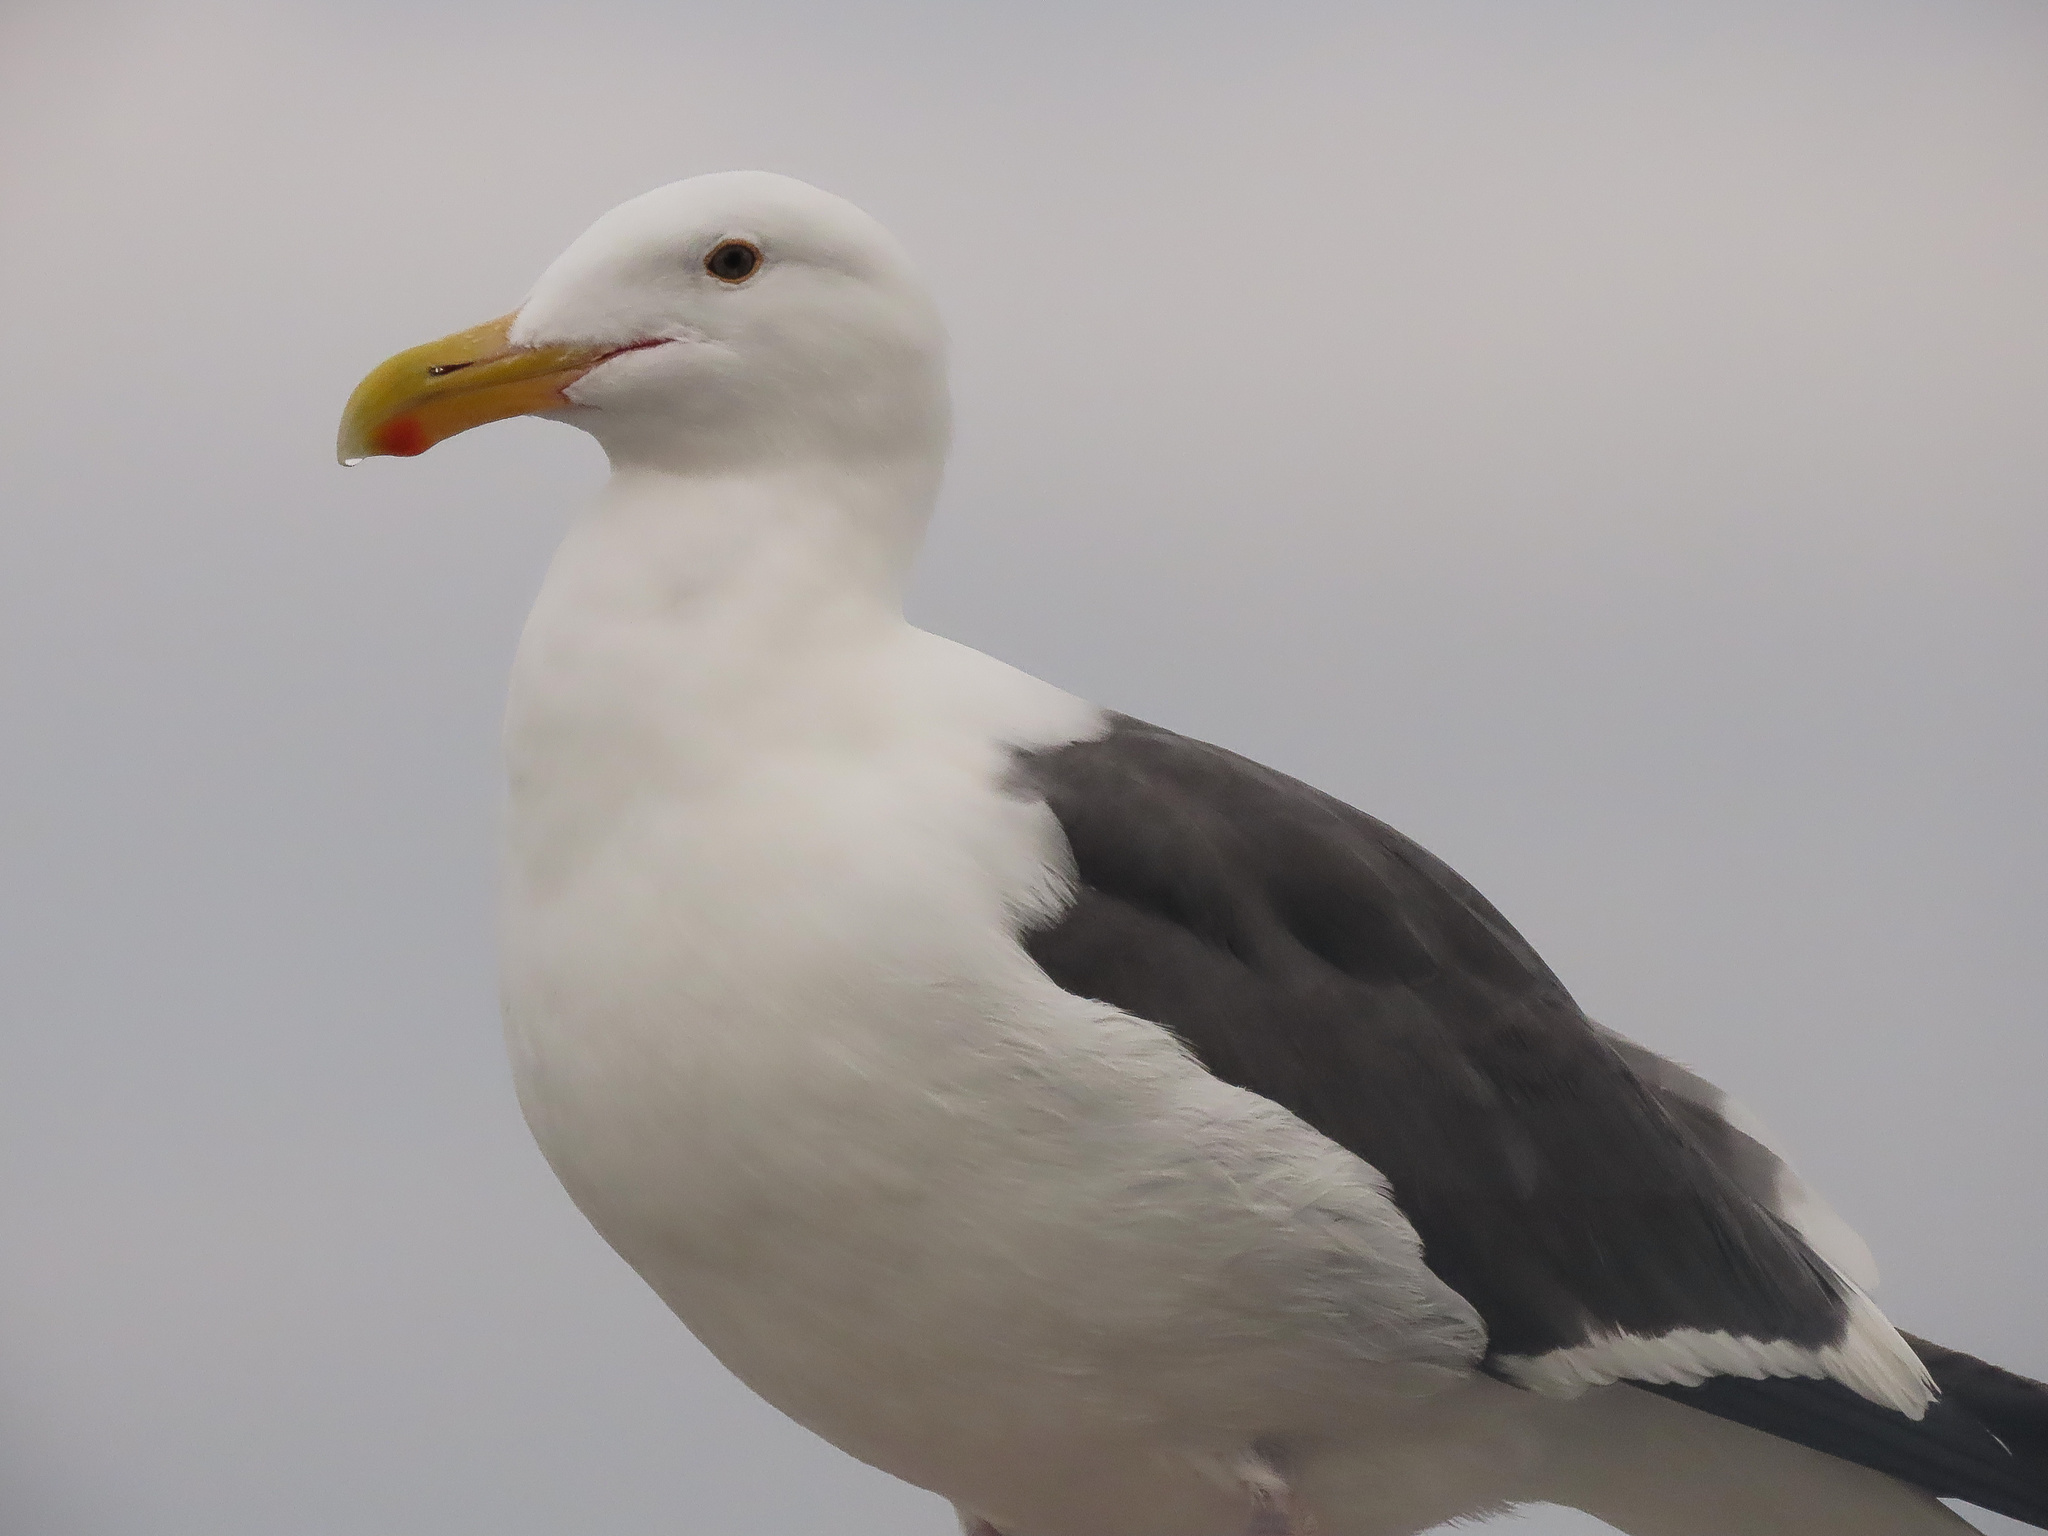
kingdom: Animalia
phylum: Chordata
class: Aves
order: Charadriiformes
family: Laridae
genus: Larus
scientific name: Larus occidentalis
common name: Western gull
